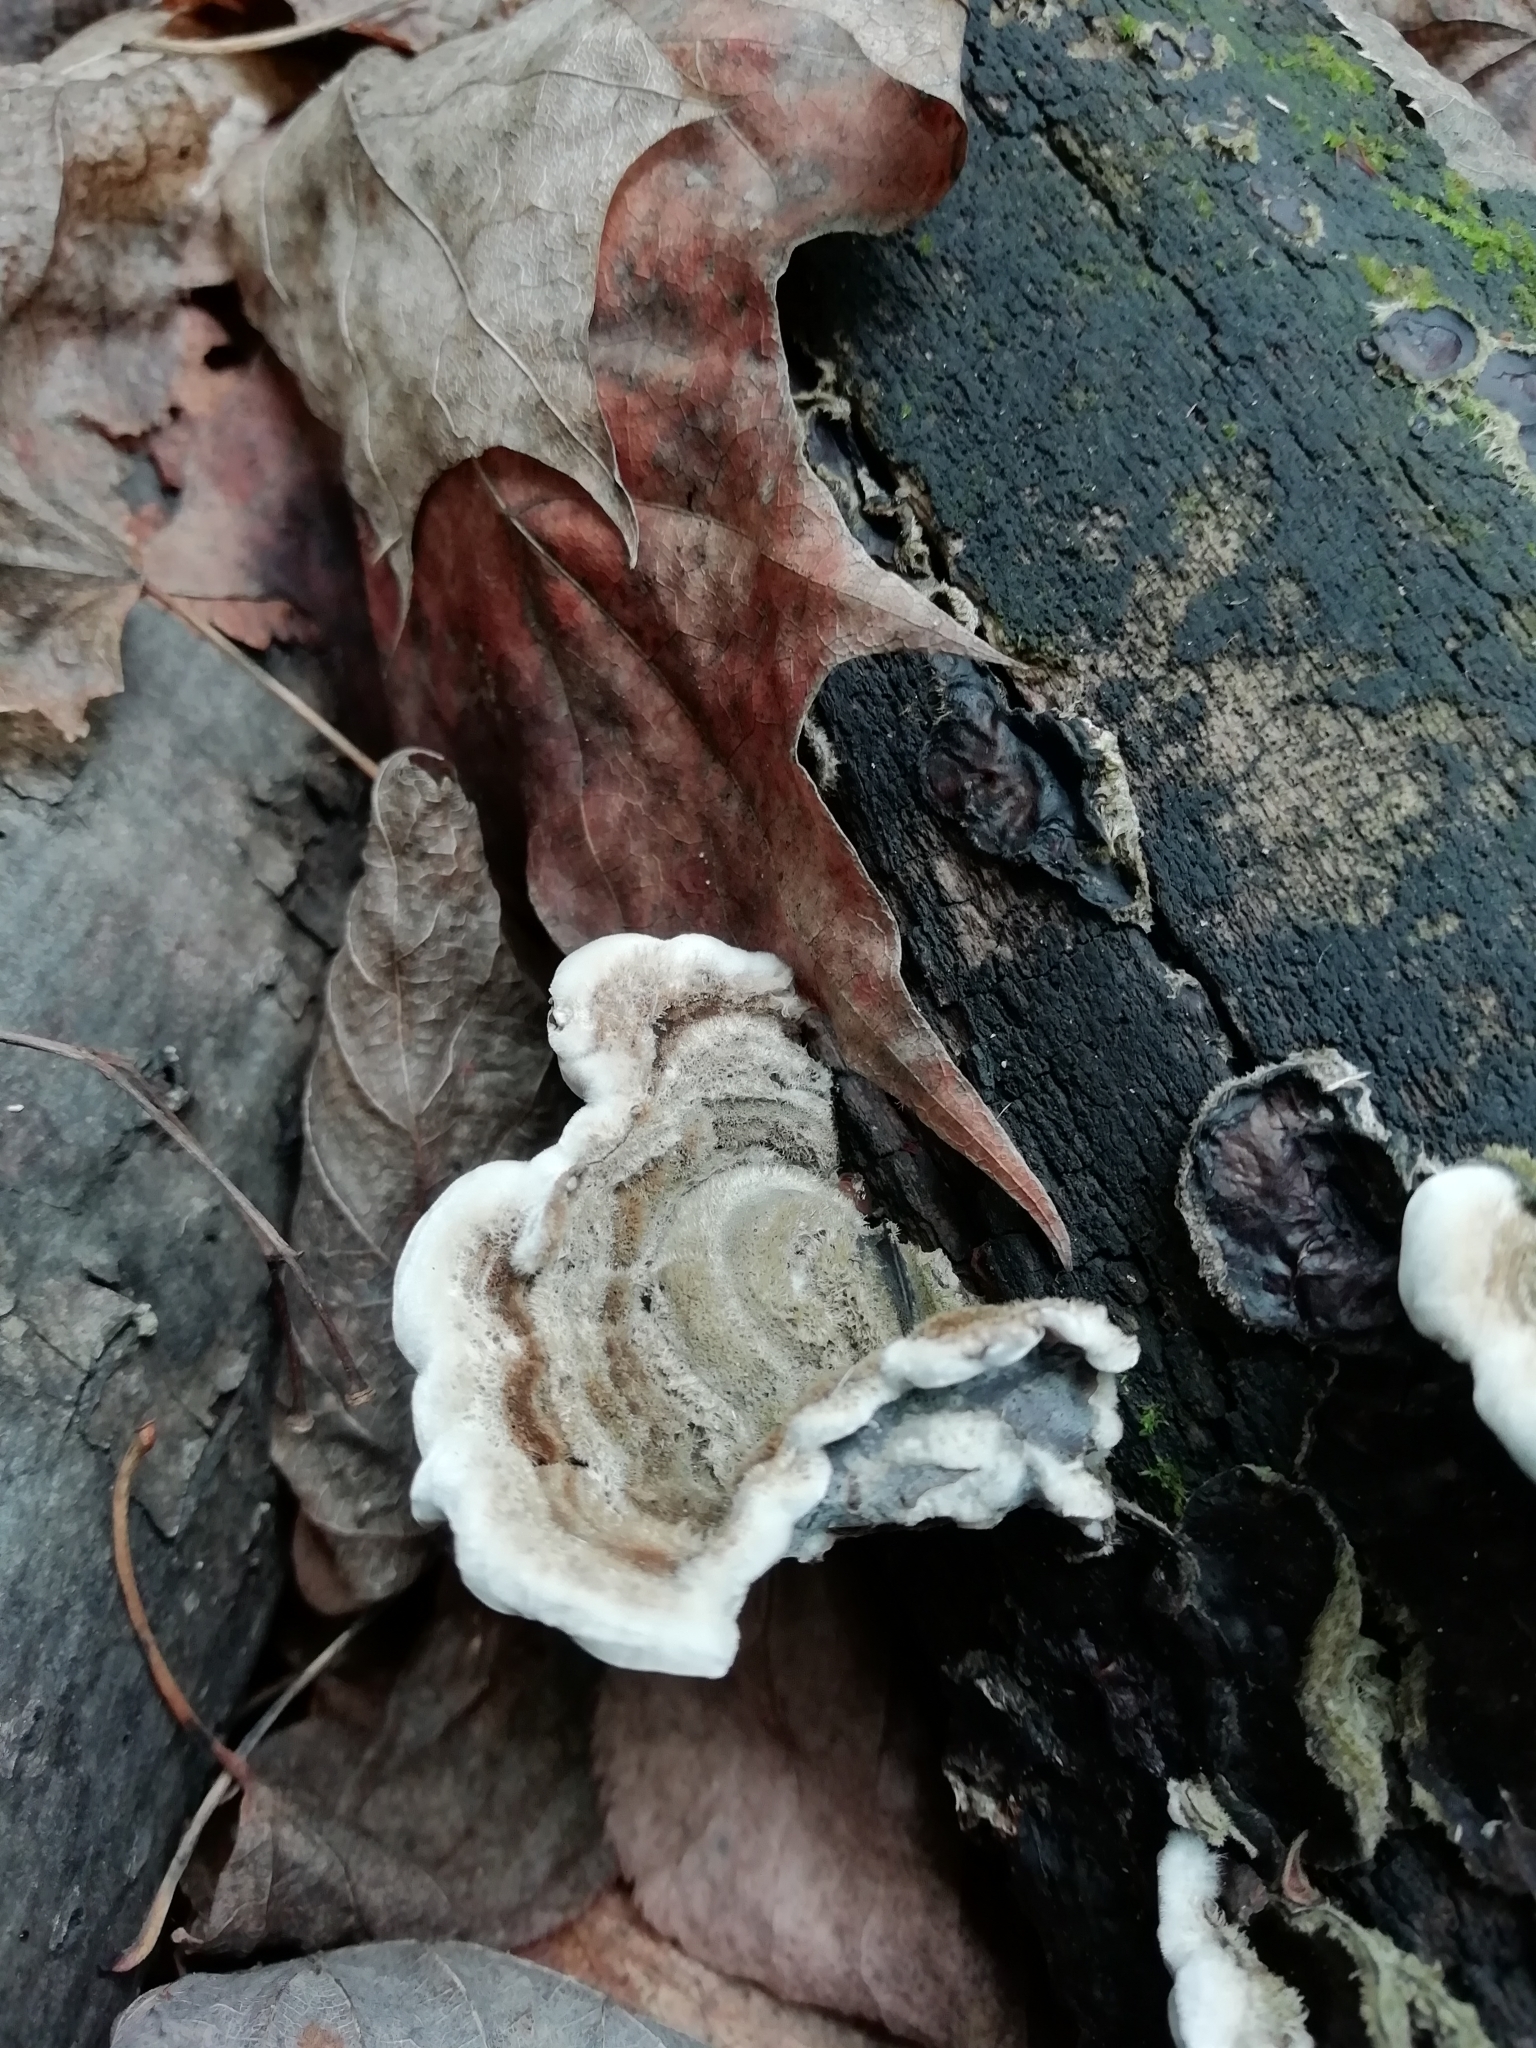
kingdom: Fungi
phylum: Basidiomycota
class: Agaricomycetes
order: Auriculariales
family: Auriculariaceae
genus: Auricularia
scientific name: Auricularia mesenterica
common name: Tripe fungus
